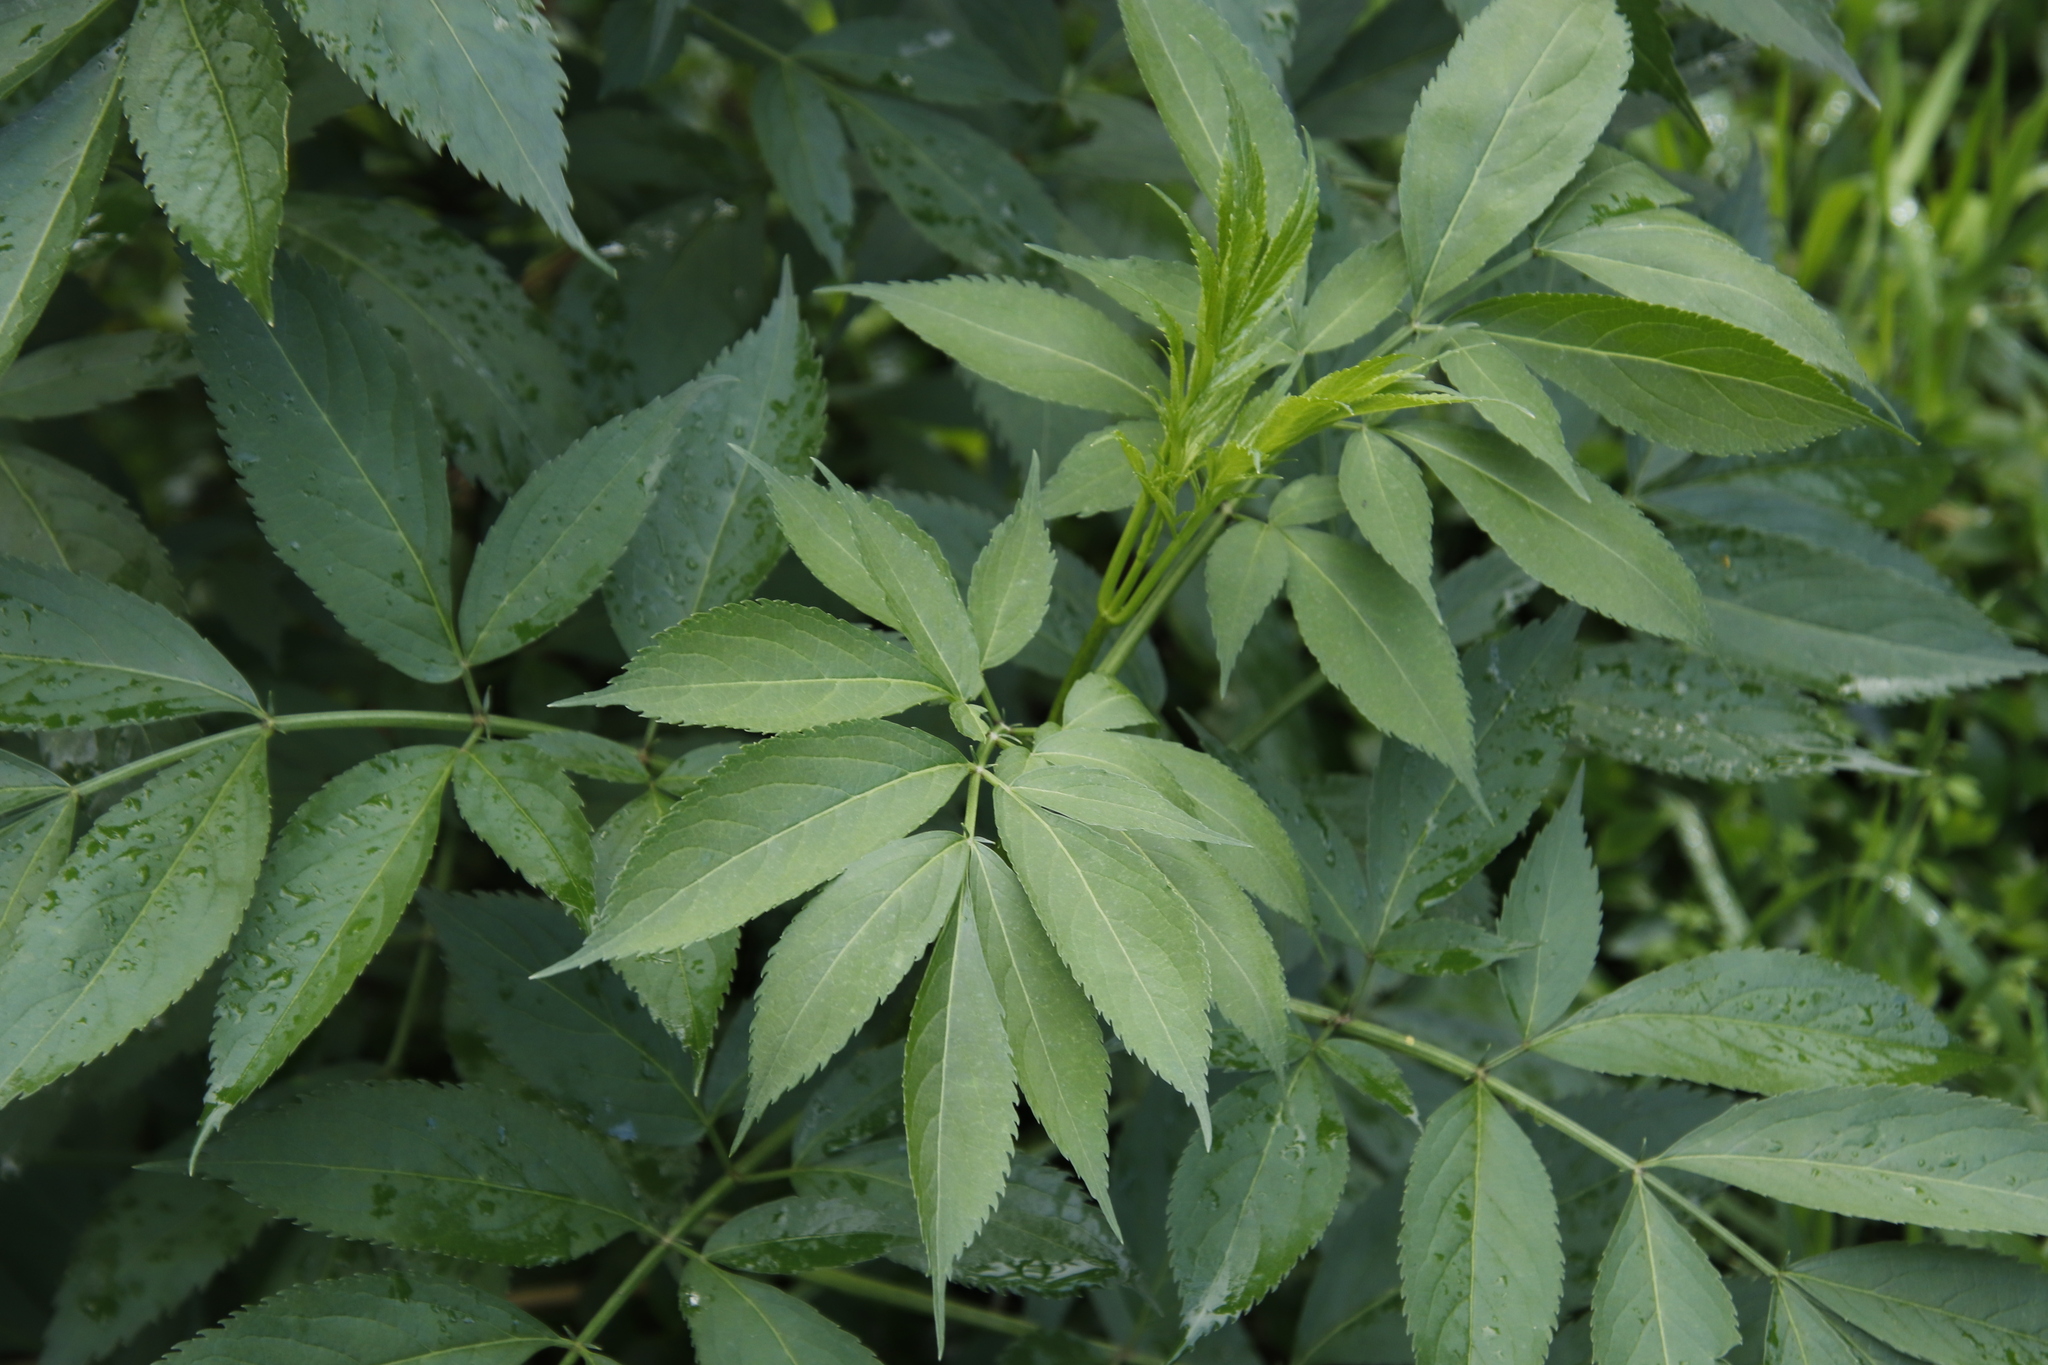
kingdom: Plantae
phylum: Tracheophyta
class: Magnoliopsida
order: Dipsacales
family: Viburnaceae
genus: Sambucus
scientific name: Sambucus canadensis
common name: American elder
